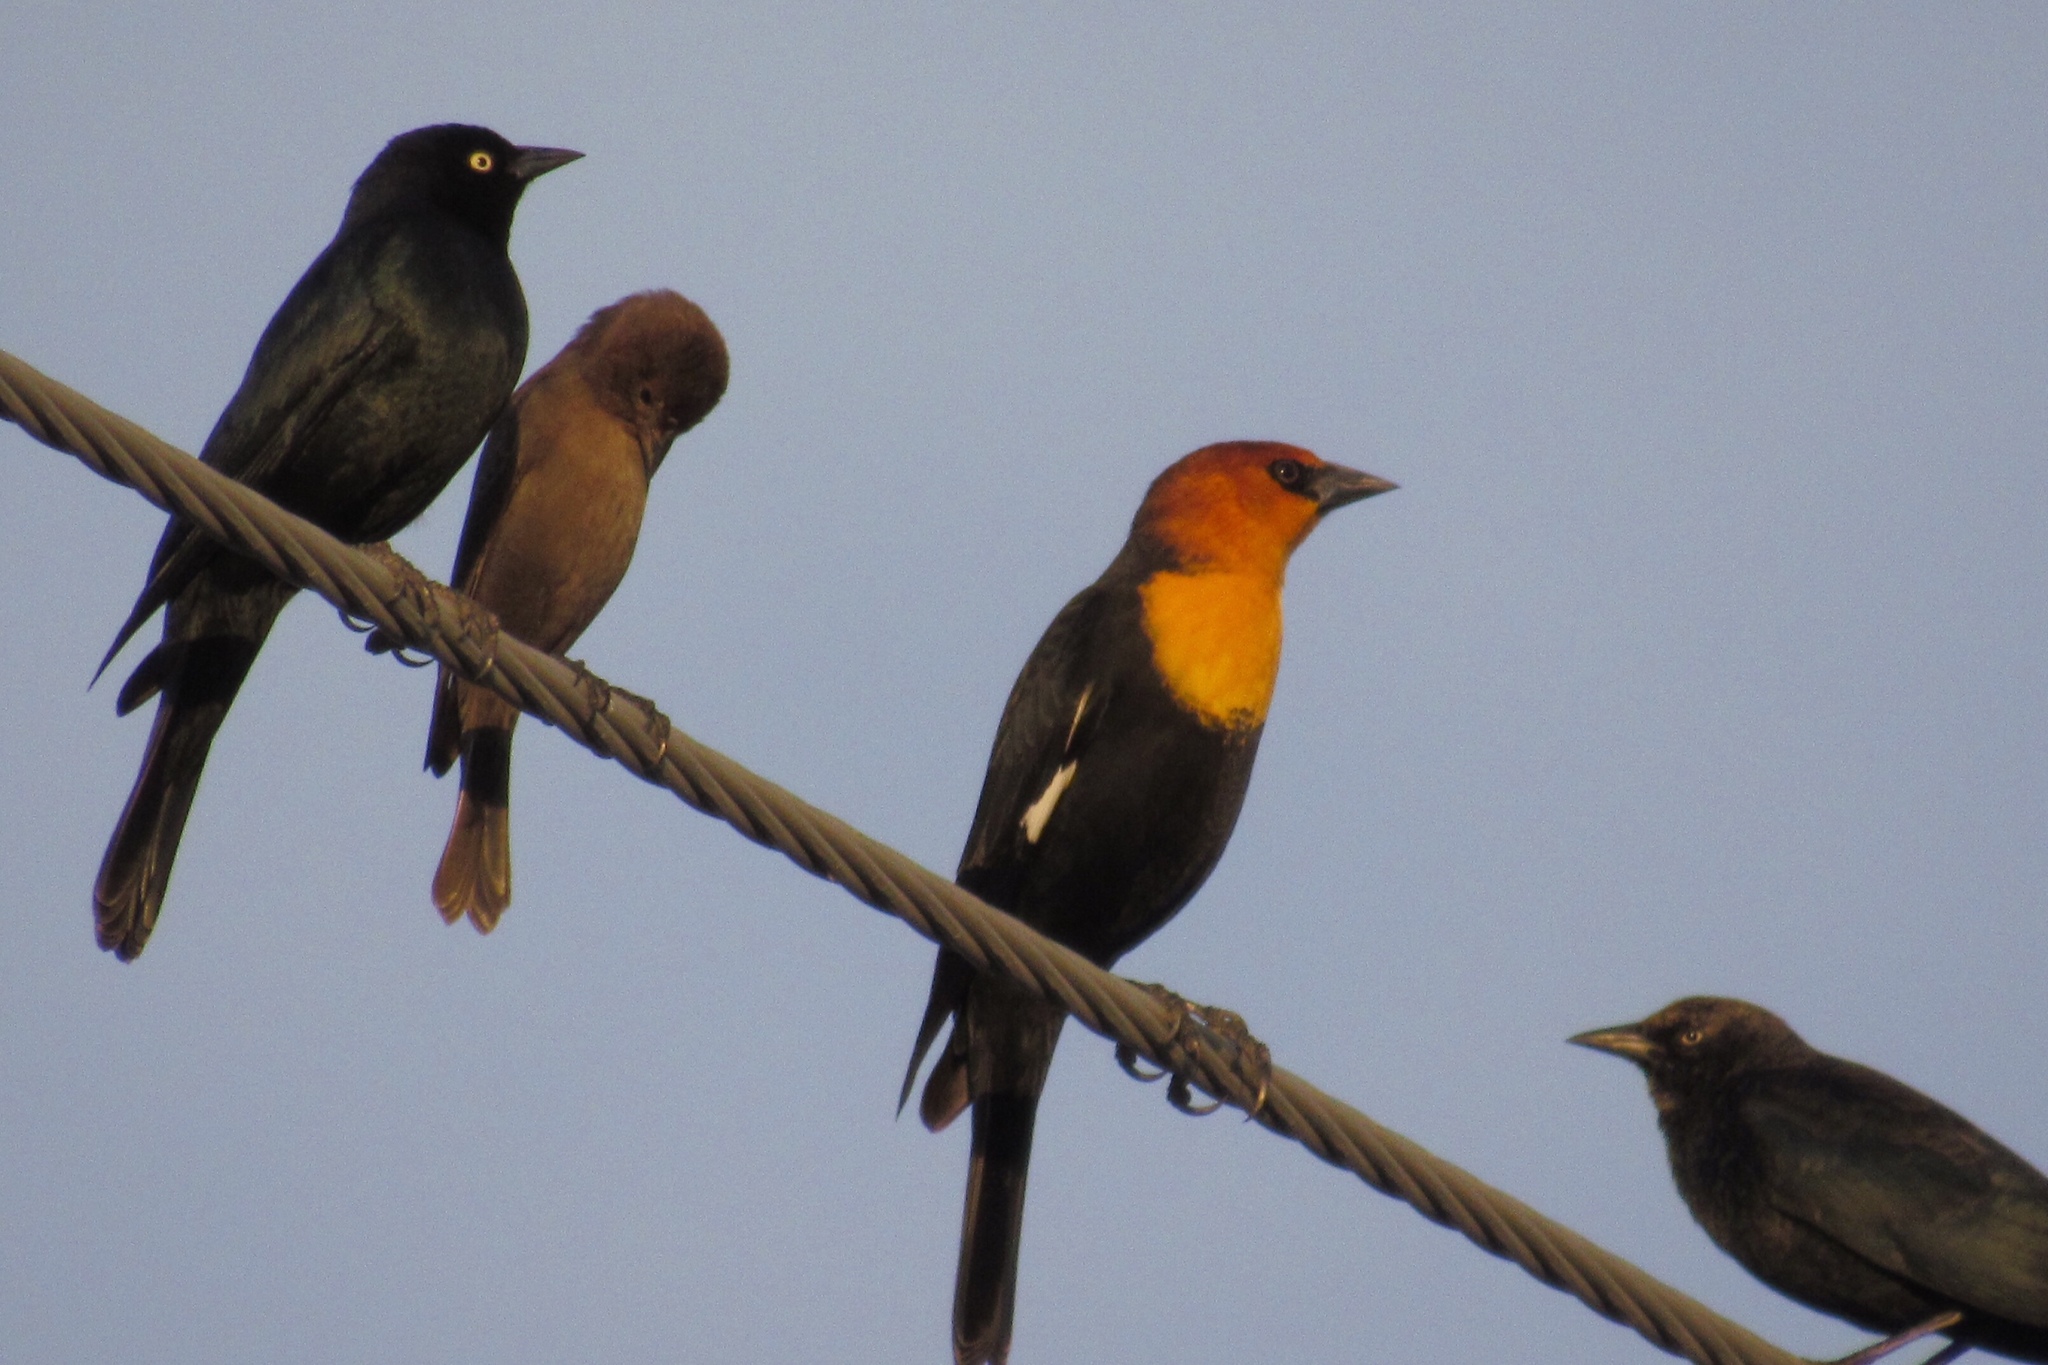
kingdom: Animalia
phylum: Chordata
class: Aves
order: Passeriformes
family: Icteridae
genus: Xanthocephalus
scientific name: Xanthocephalus xanthocephalus
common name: Yellow-headed blackbird
